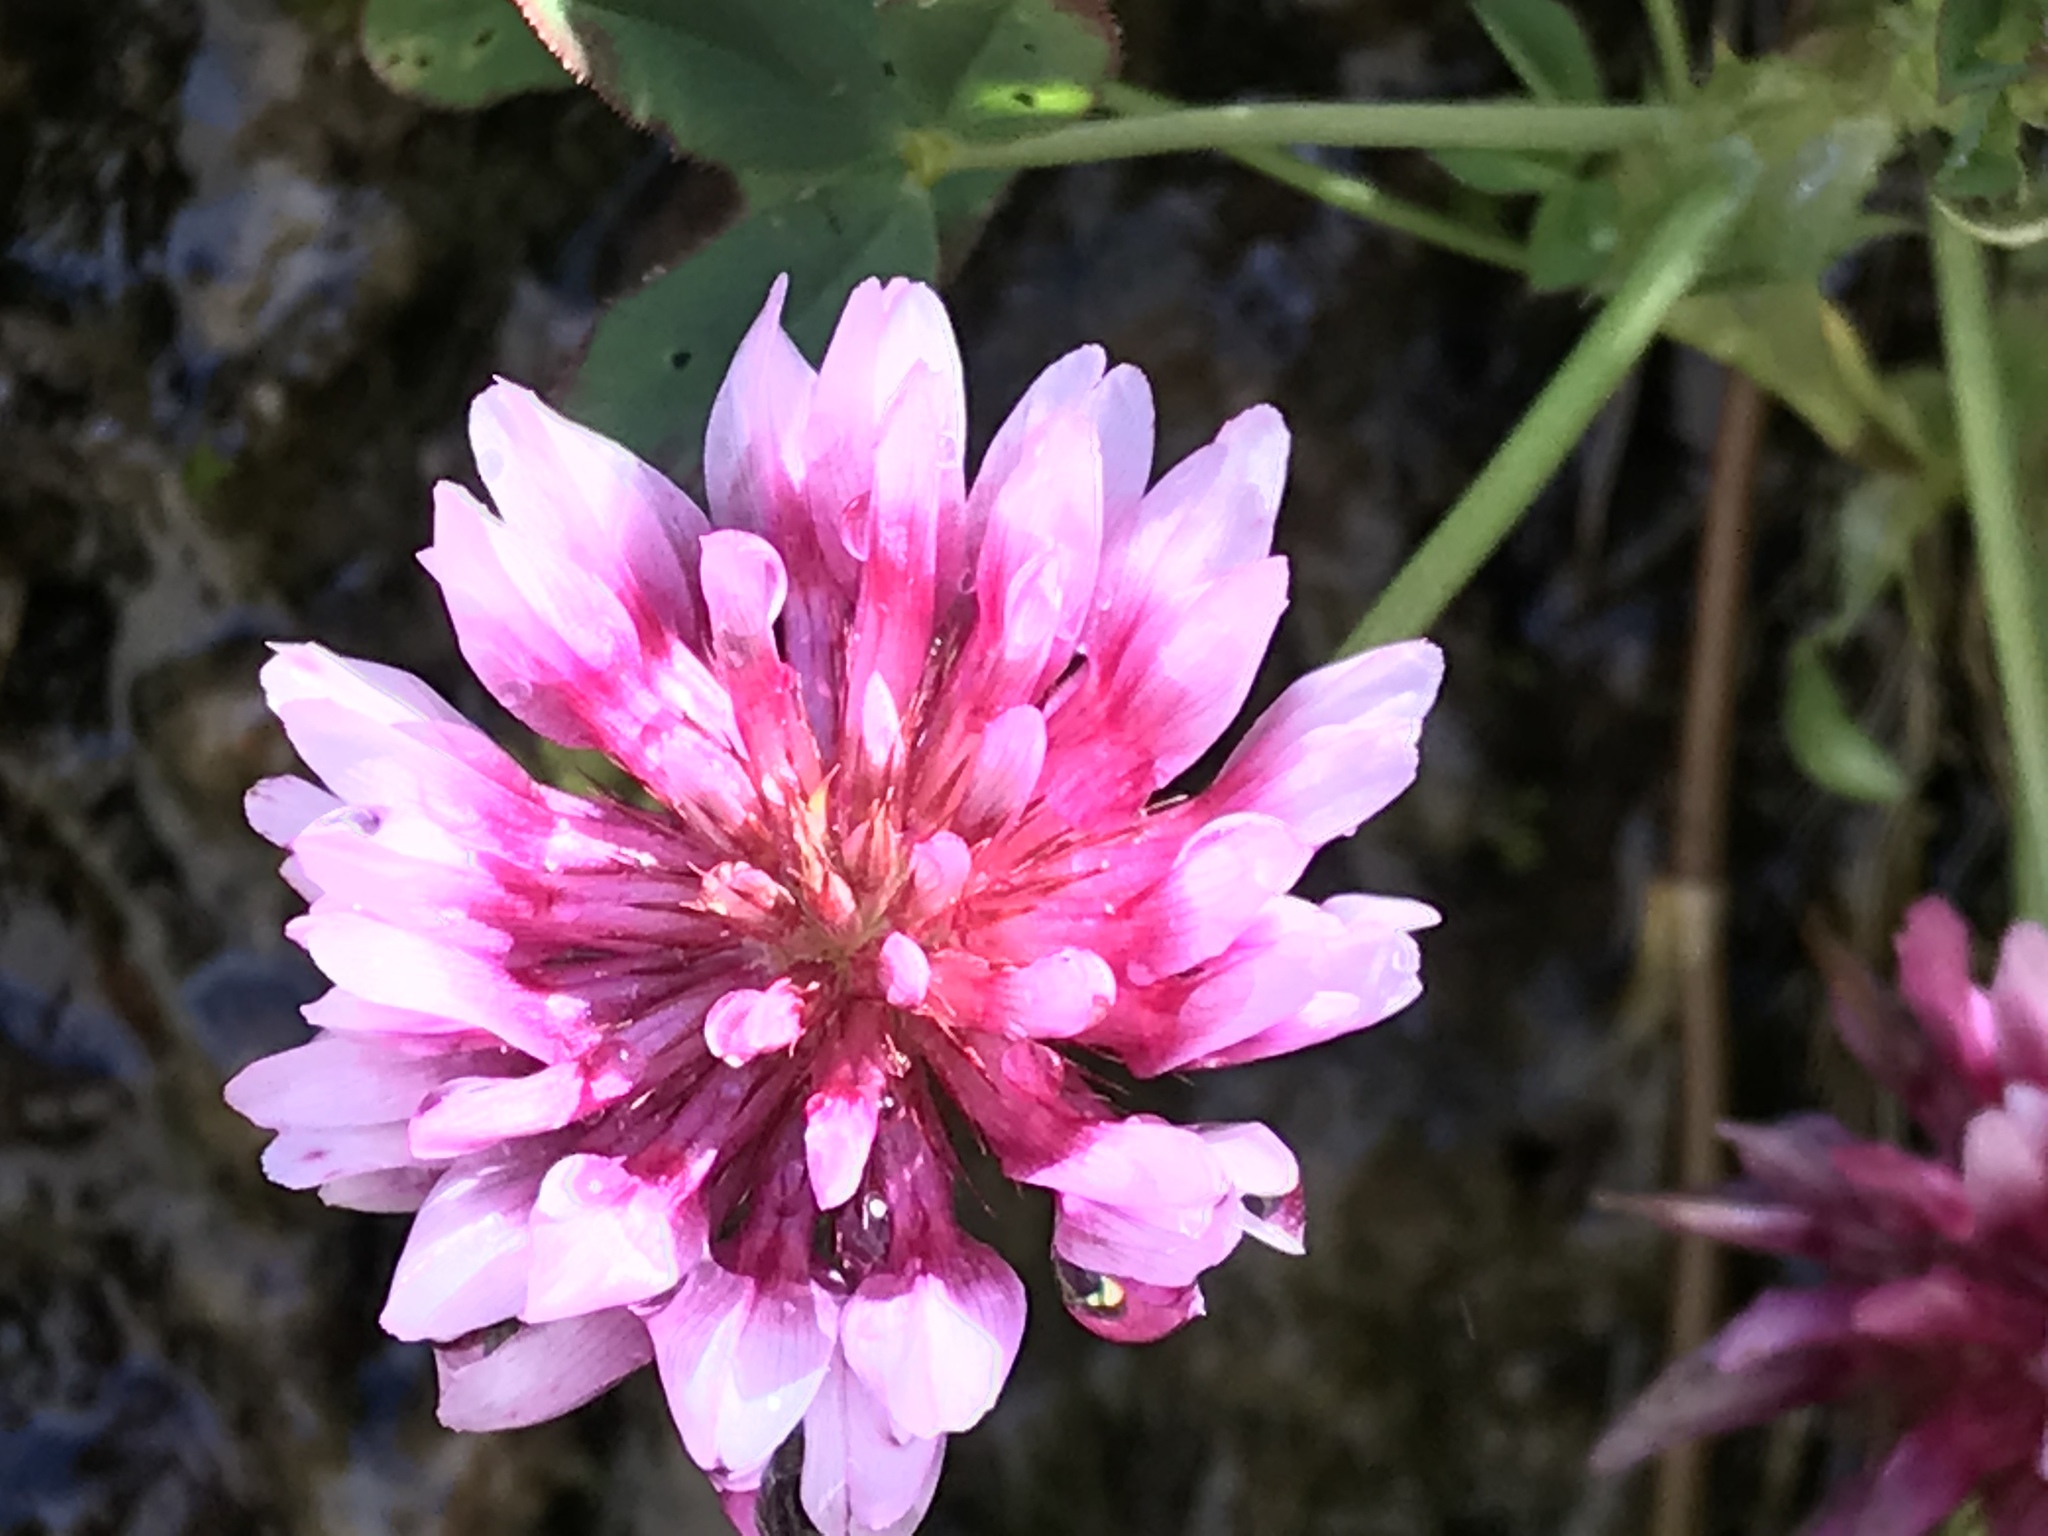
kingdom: Plantae
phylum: Tracheophyta
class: Magnoliopsida
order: Fabales
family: Fabaceae
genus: Trifolium
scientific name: Trifolium wormskioldii
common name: Springbank clover
